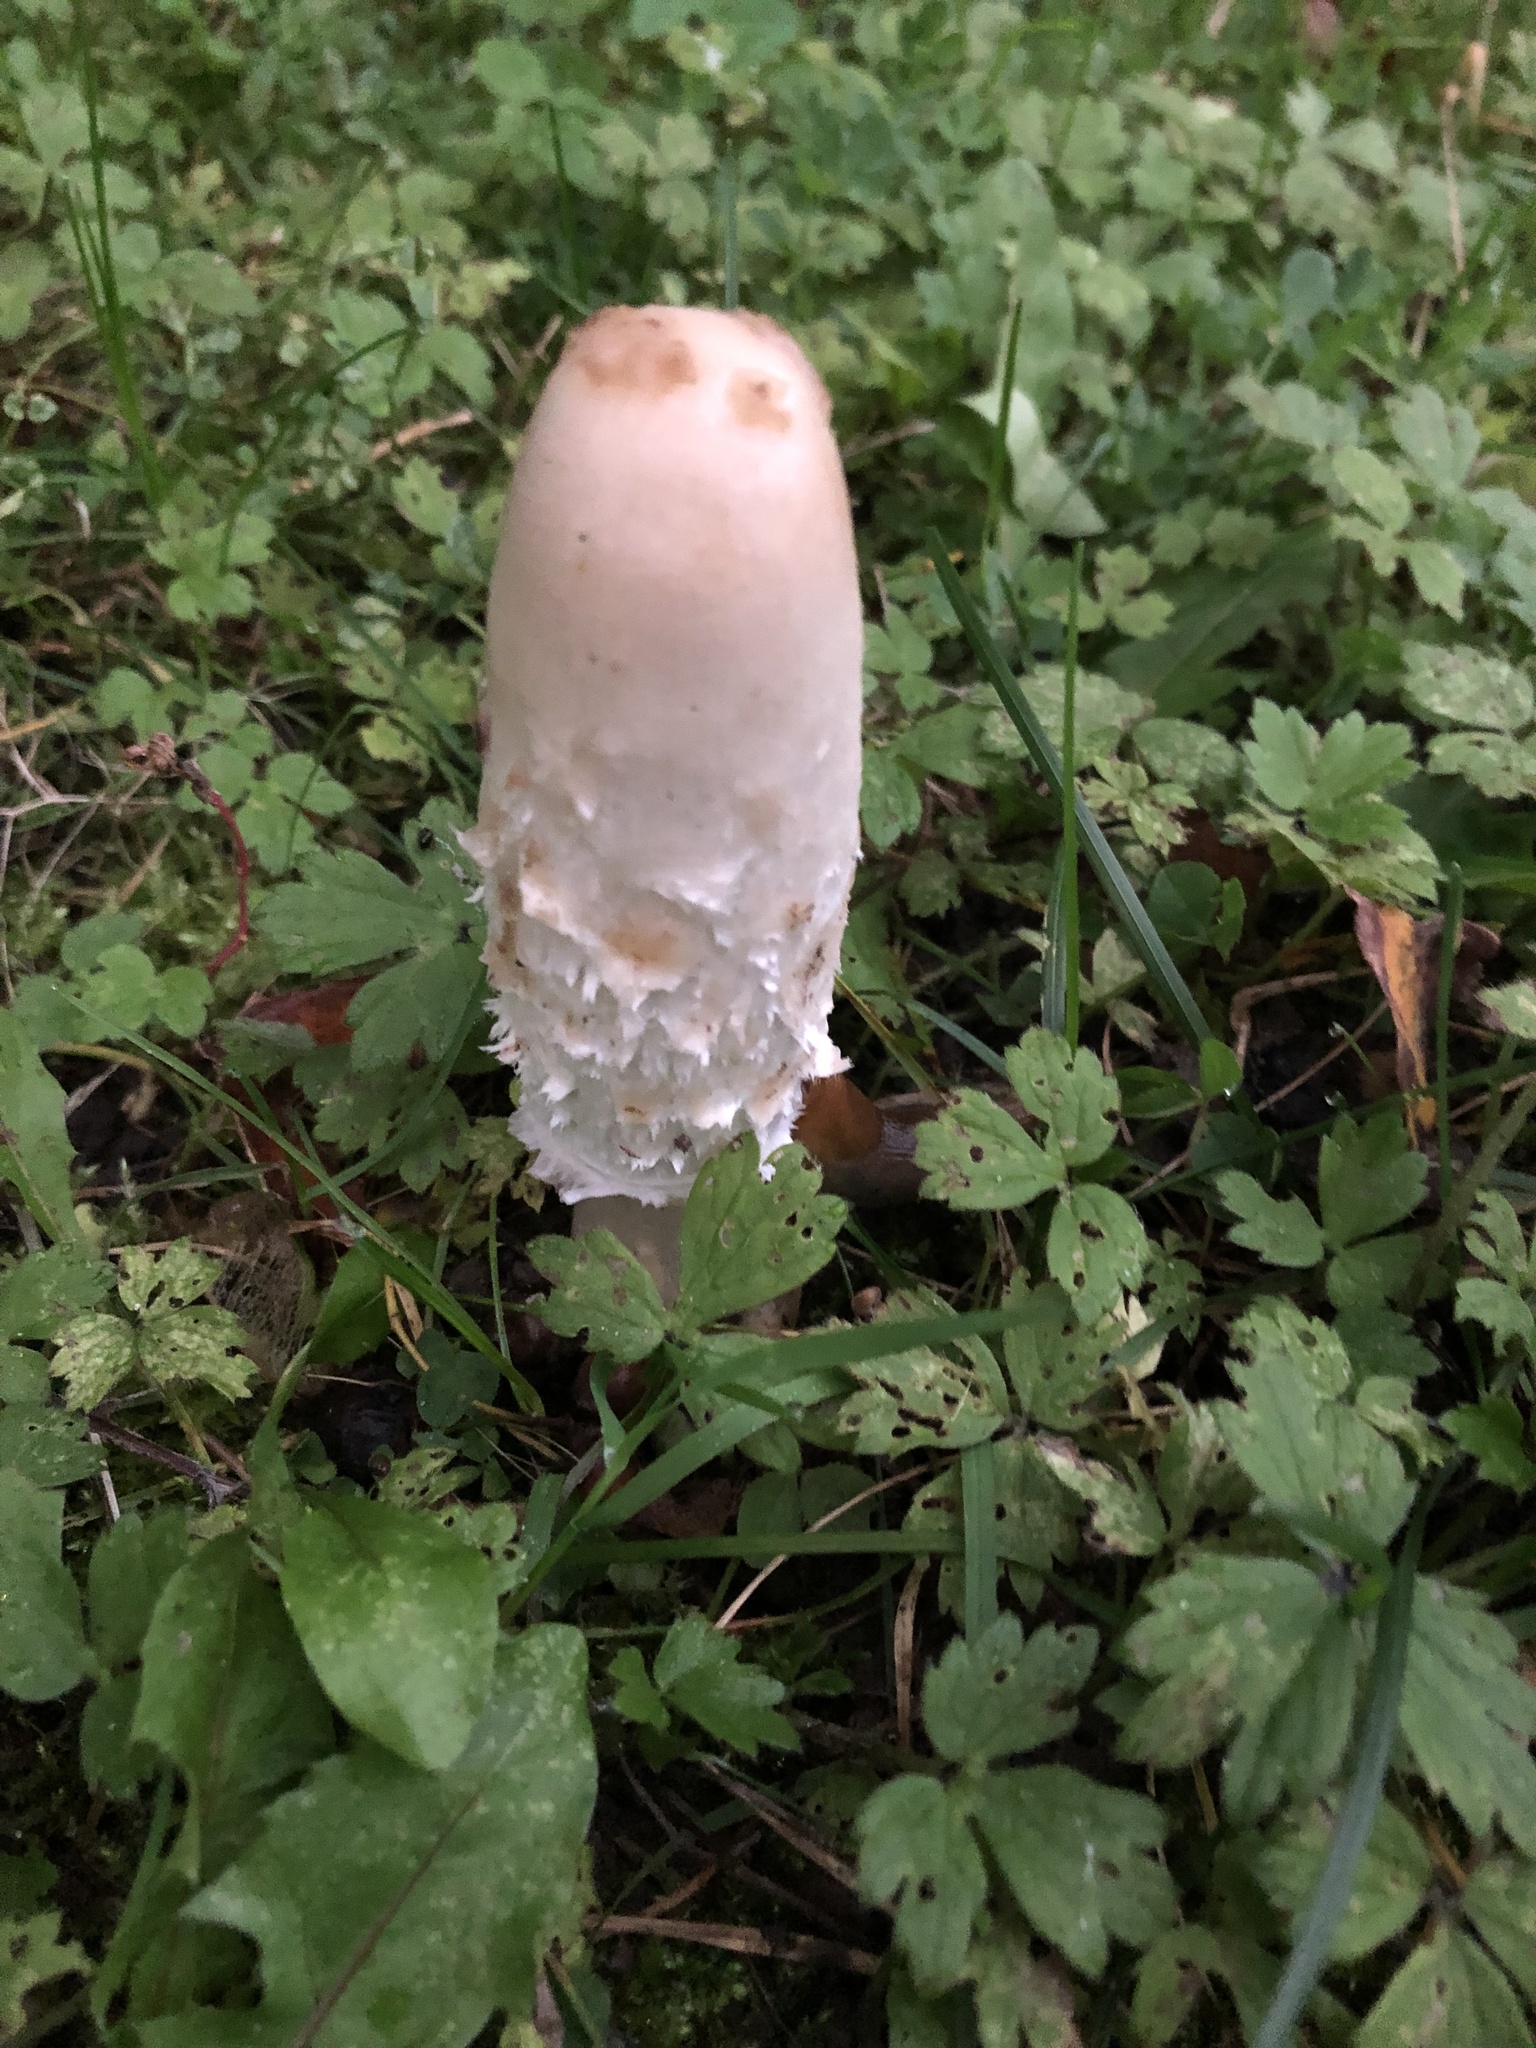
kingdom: Fungi
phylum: Basidiomycota
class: Agaricomycetes
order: Agaricales
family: Agaricaceae
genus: Coprinus
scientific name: Coprinus comatus
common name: Lawyer's wig
